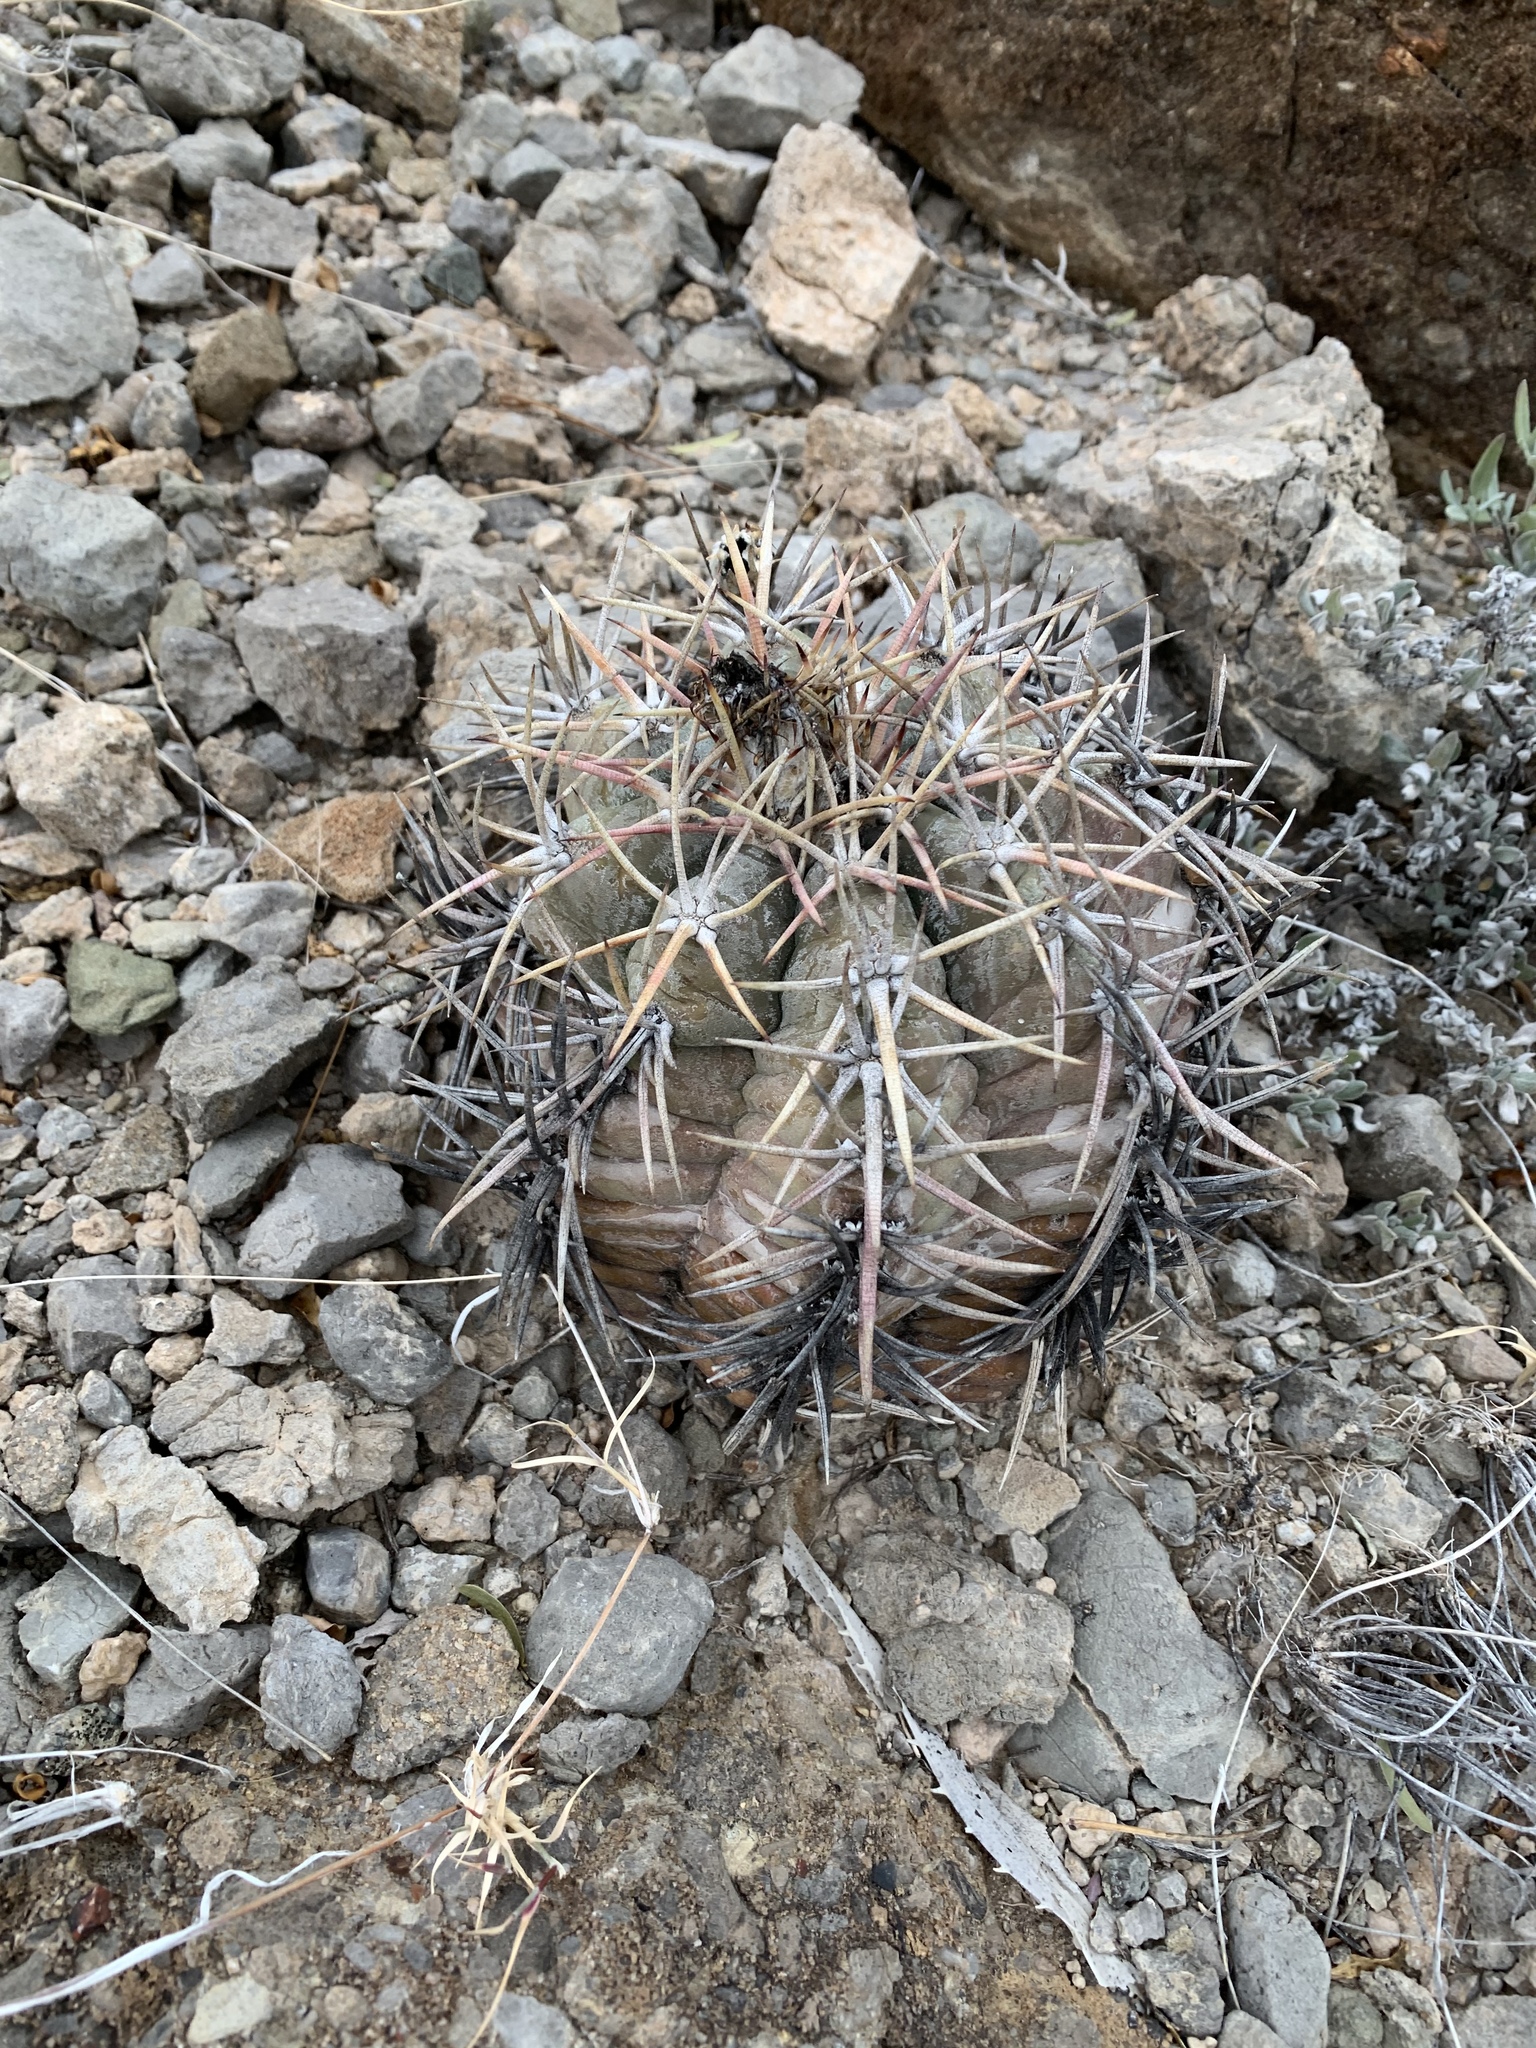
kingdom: Plantae
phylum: Tracheophyta
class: Magnoliopsida
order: Caryophyllales
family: Cactaceae
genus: Echinocactus
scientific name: Echinocactus horizonthalonius
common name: Devilshead
